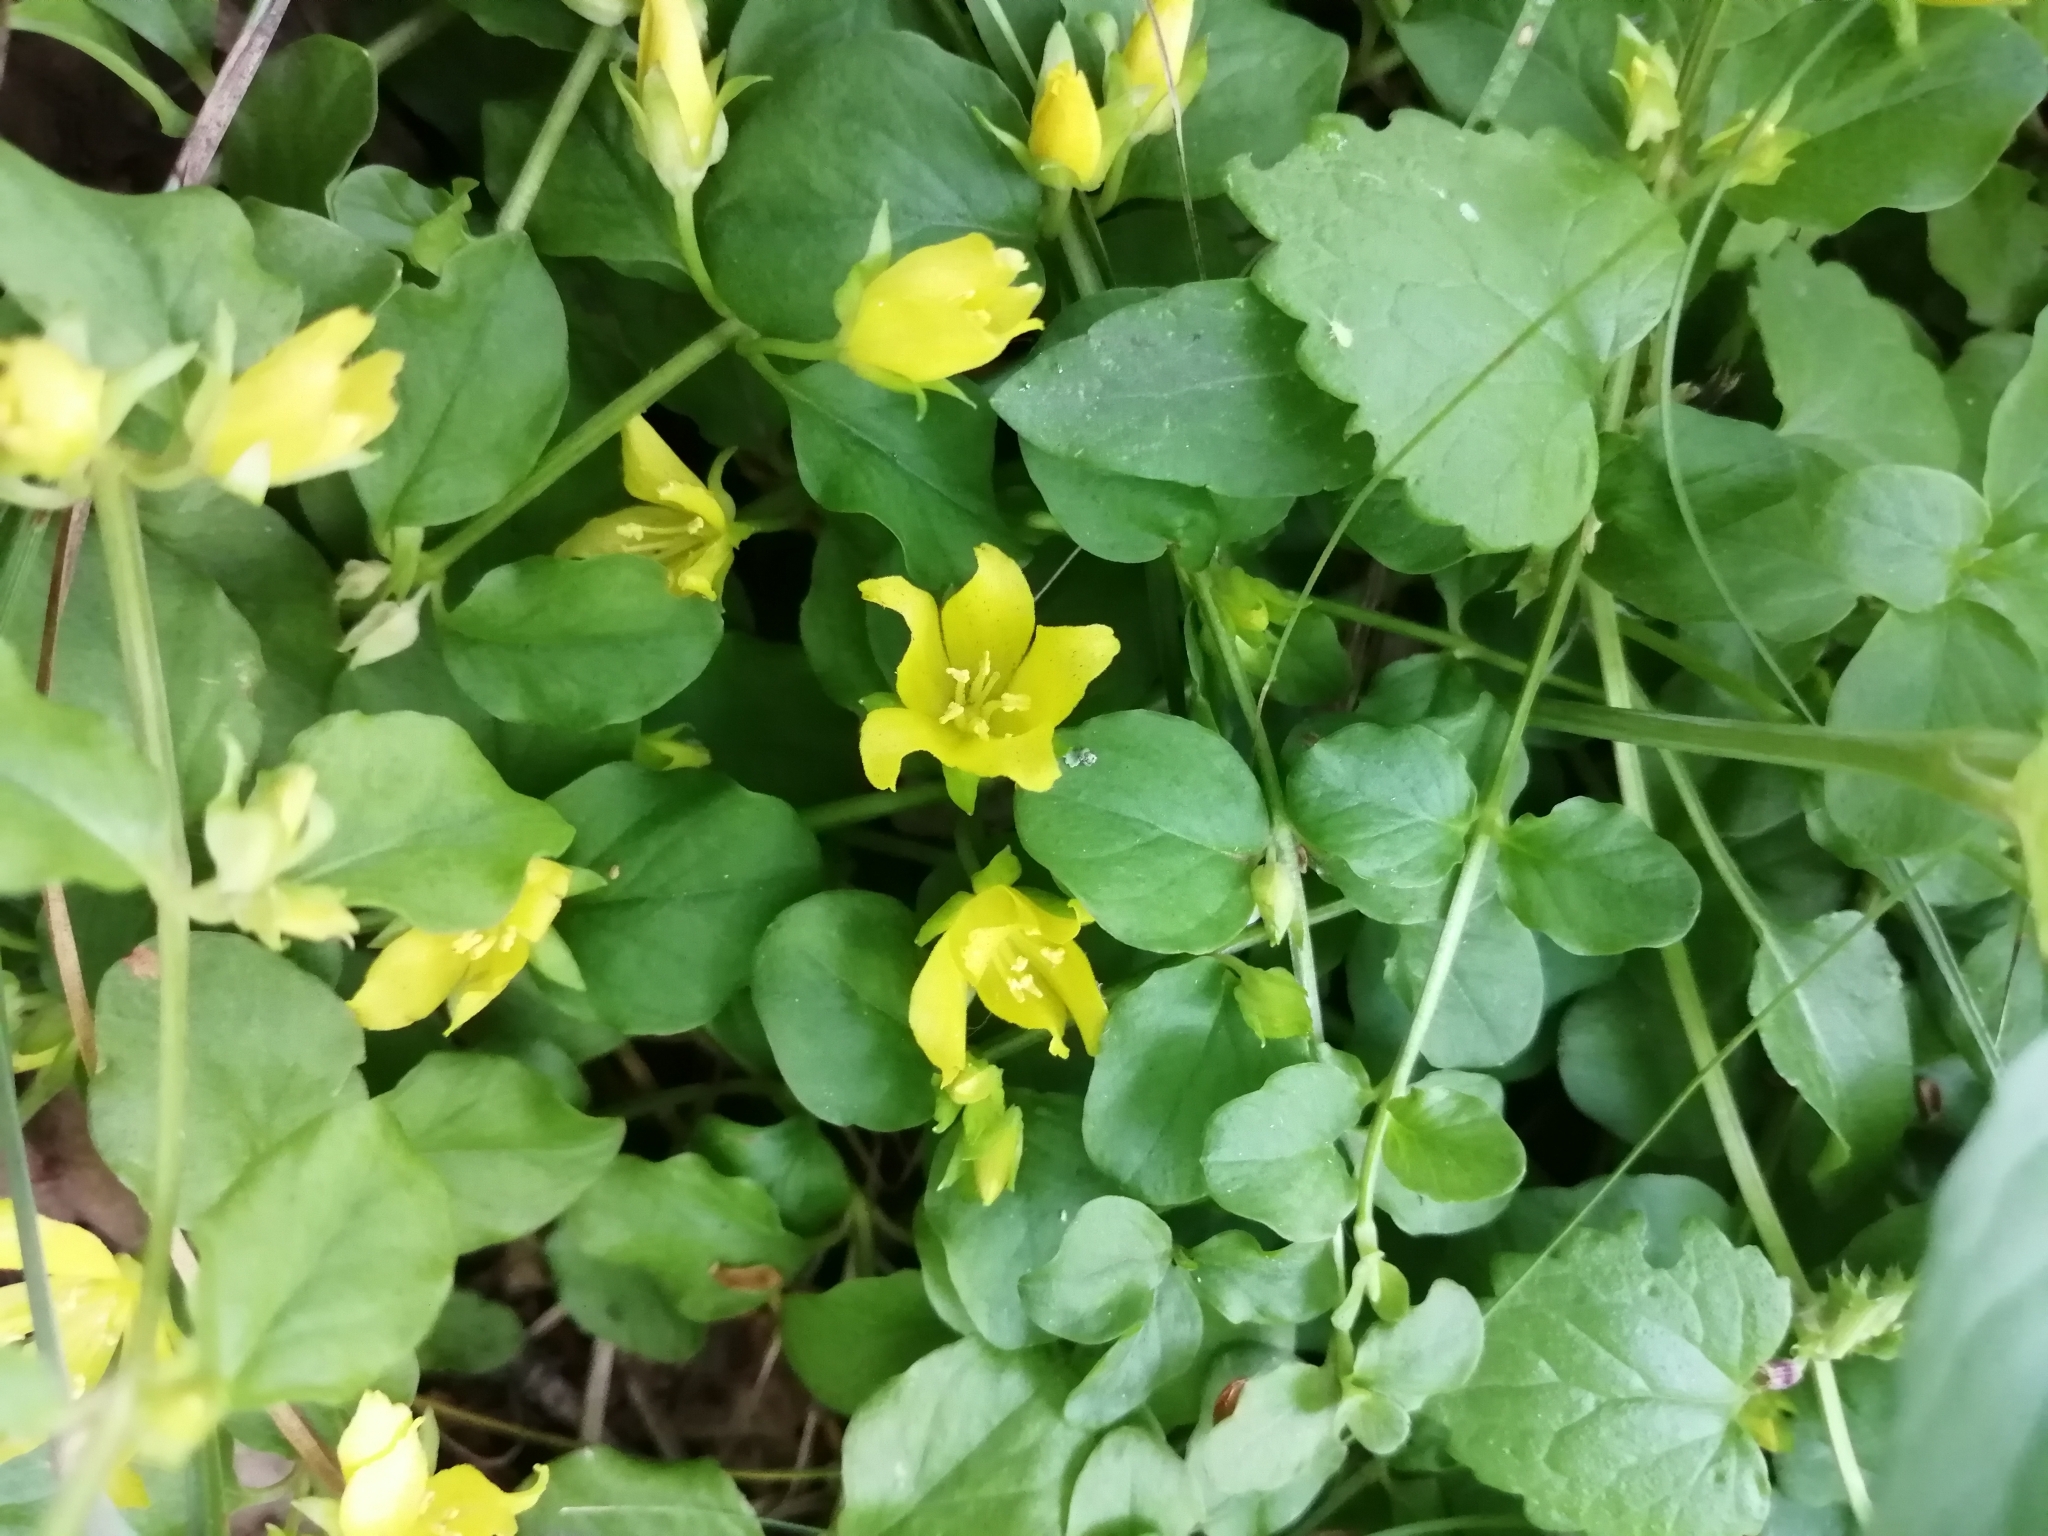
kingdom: Plantae
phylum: Tracheophyta
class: Magnoliopsida
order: Ericales
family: Primulaceae
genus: Lysimachia
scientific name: Lysimachia nummularia
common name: Moneywort
